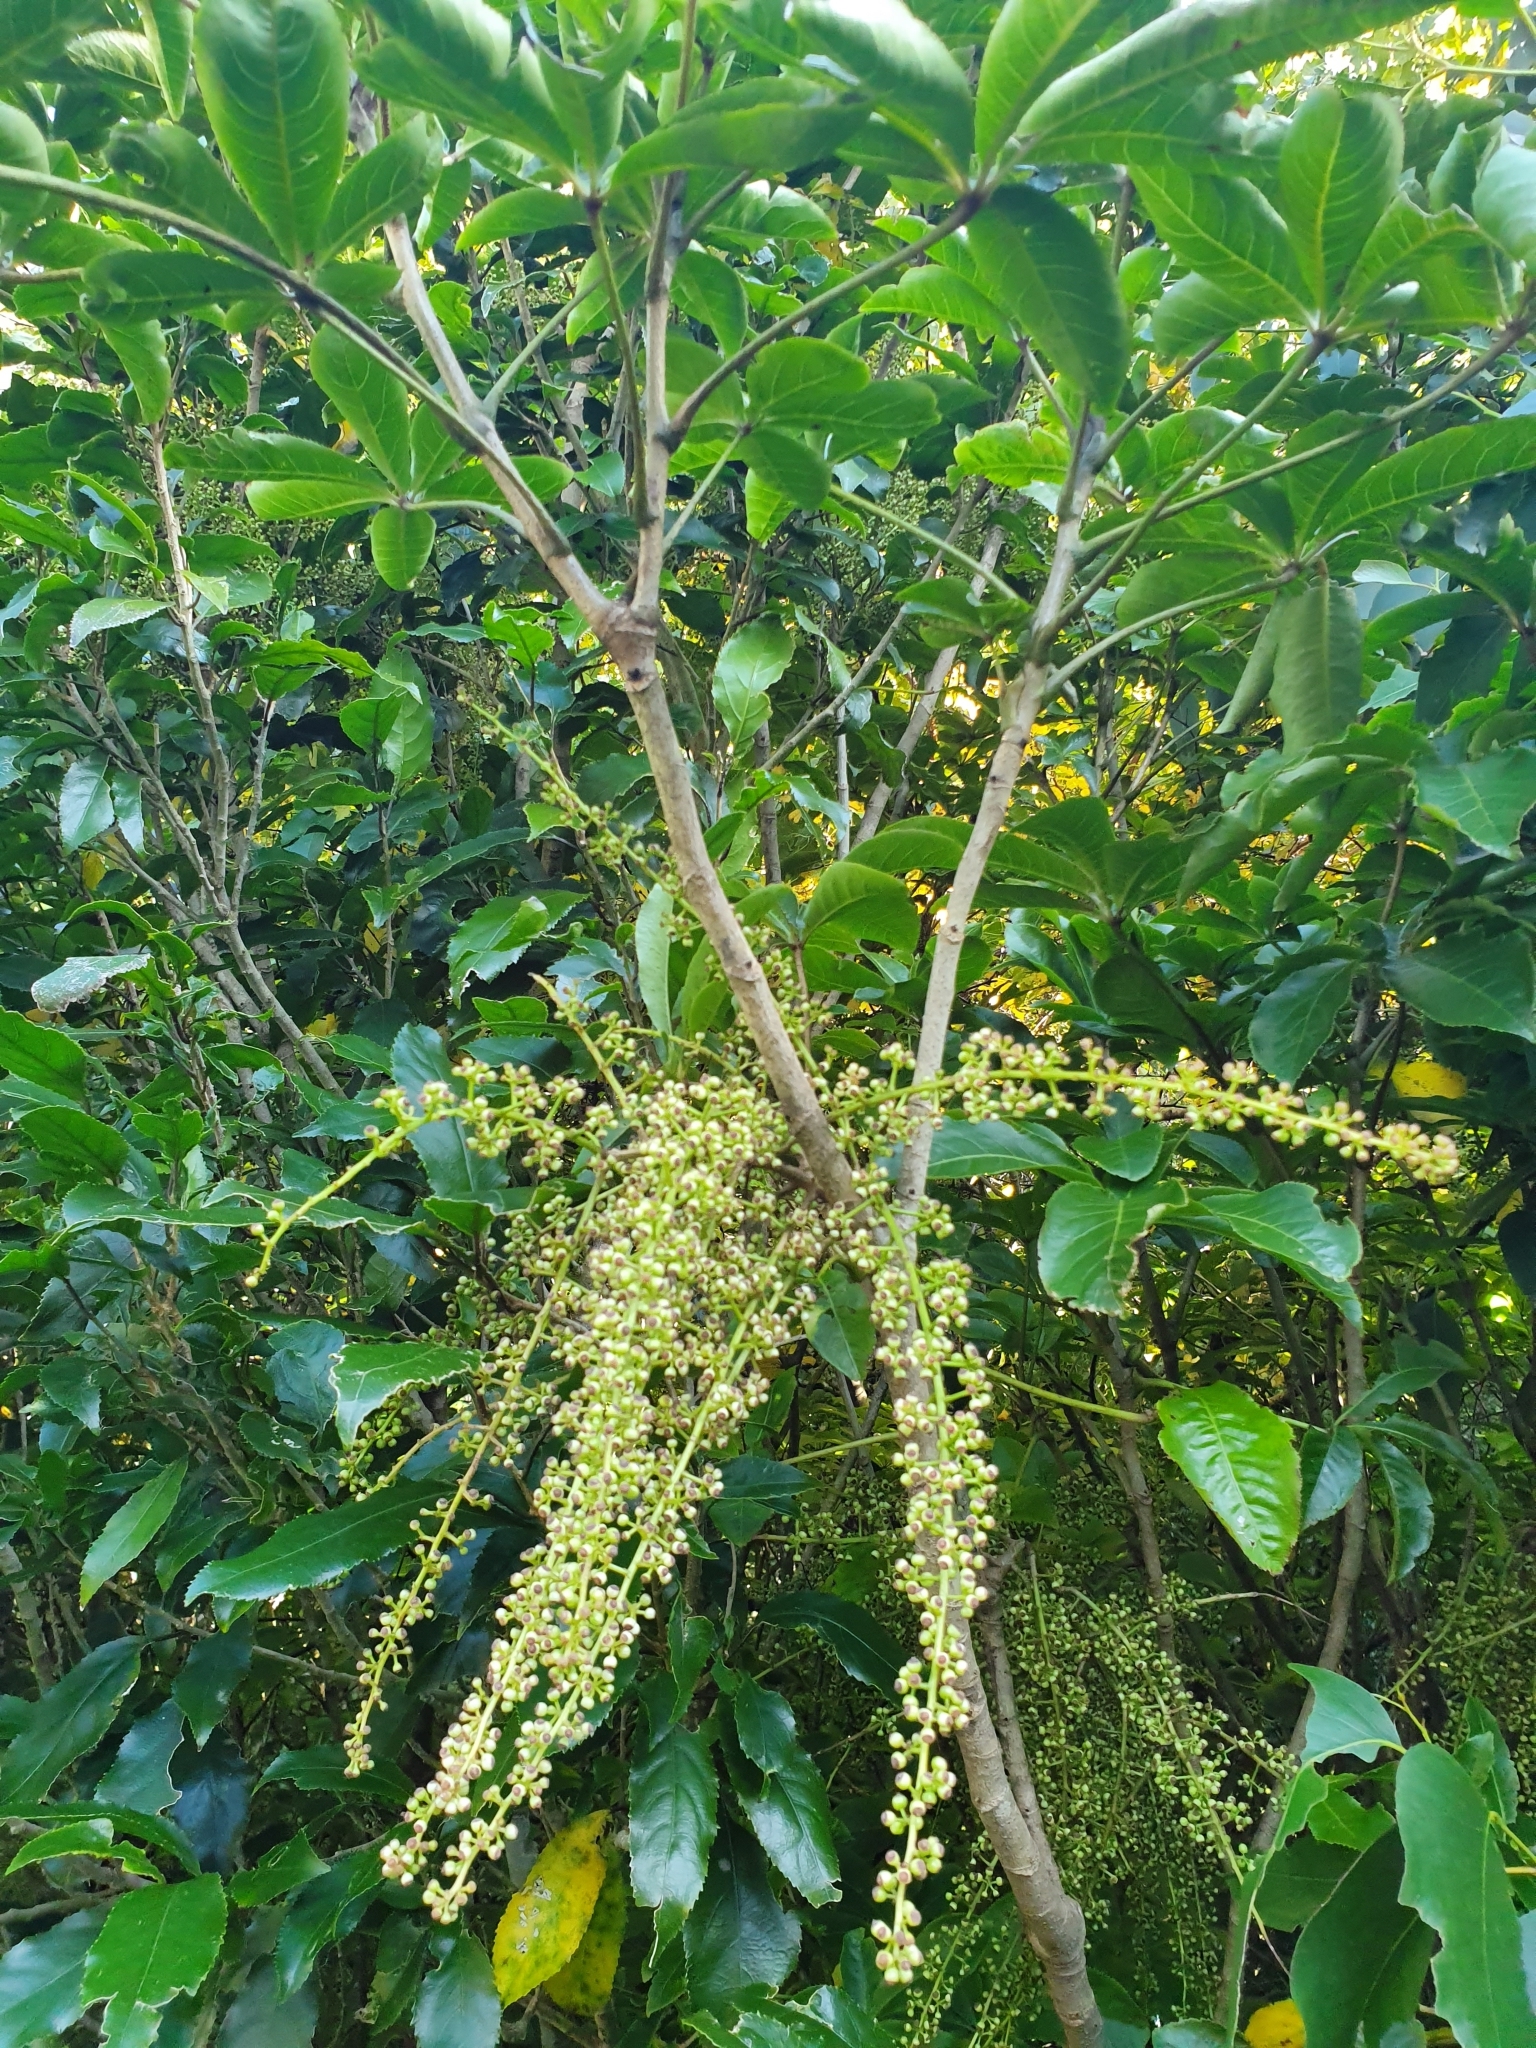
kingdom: Plantae
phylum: Tracheophyta
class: Magnoliopsida
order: Apiales
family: Araliaceae
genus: Schefflera
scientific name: Schefflera digitata
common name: Pate
